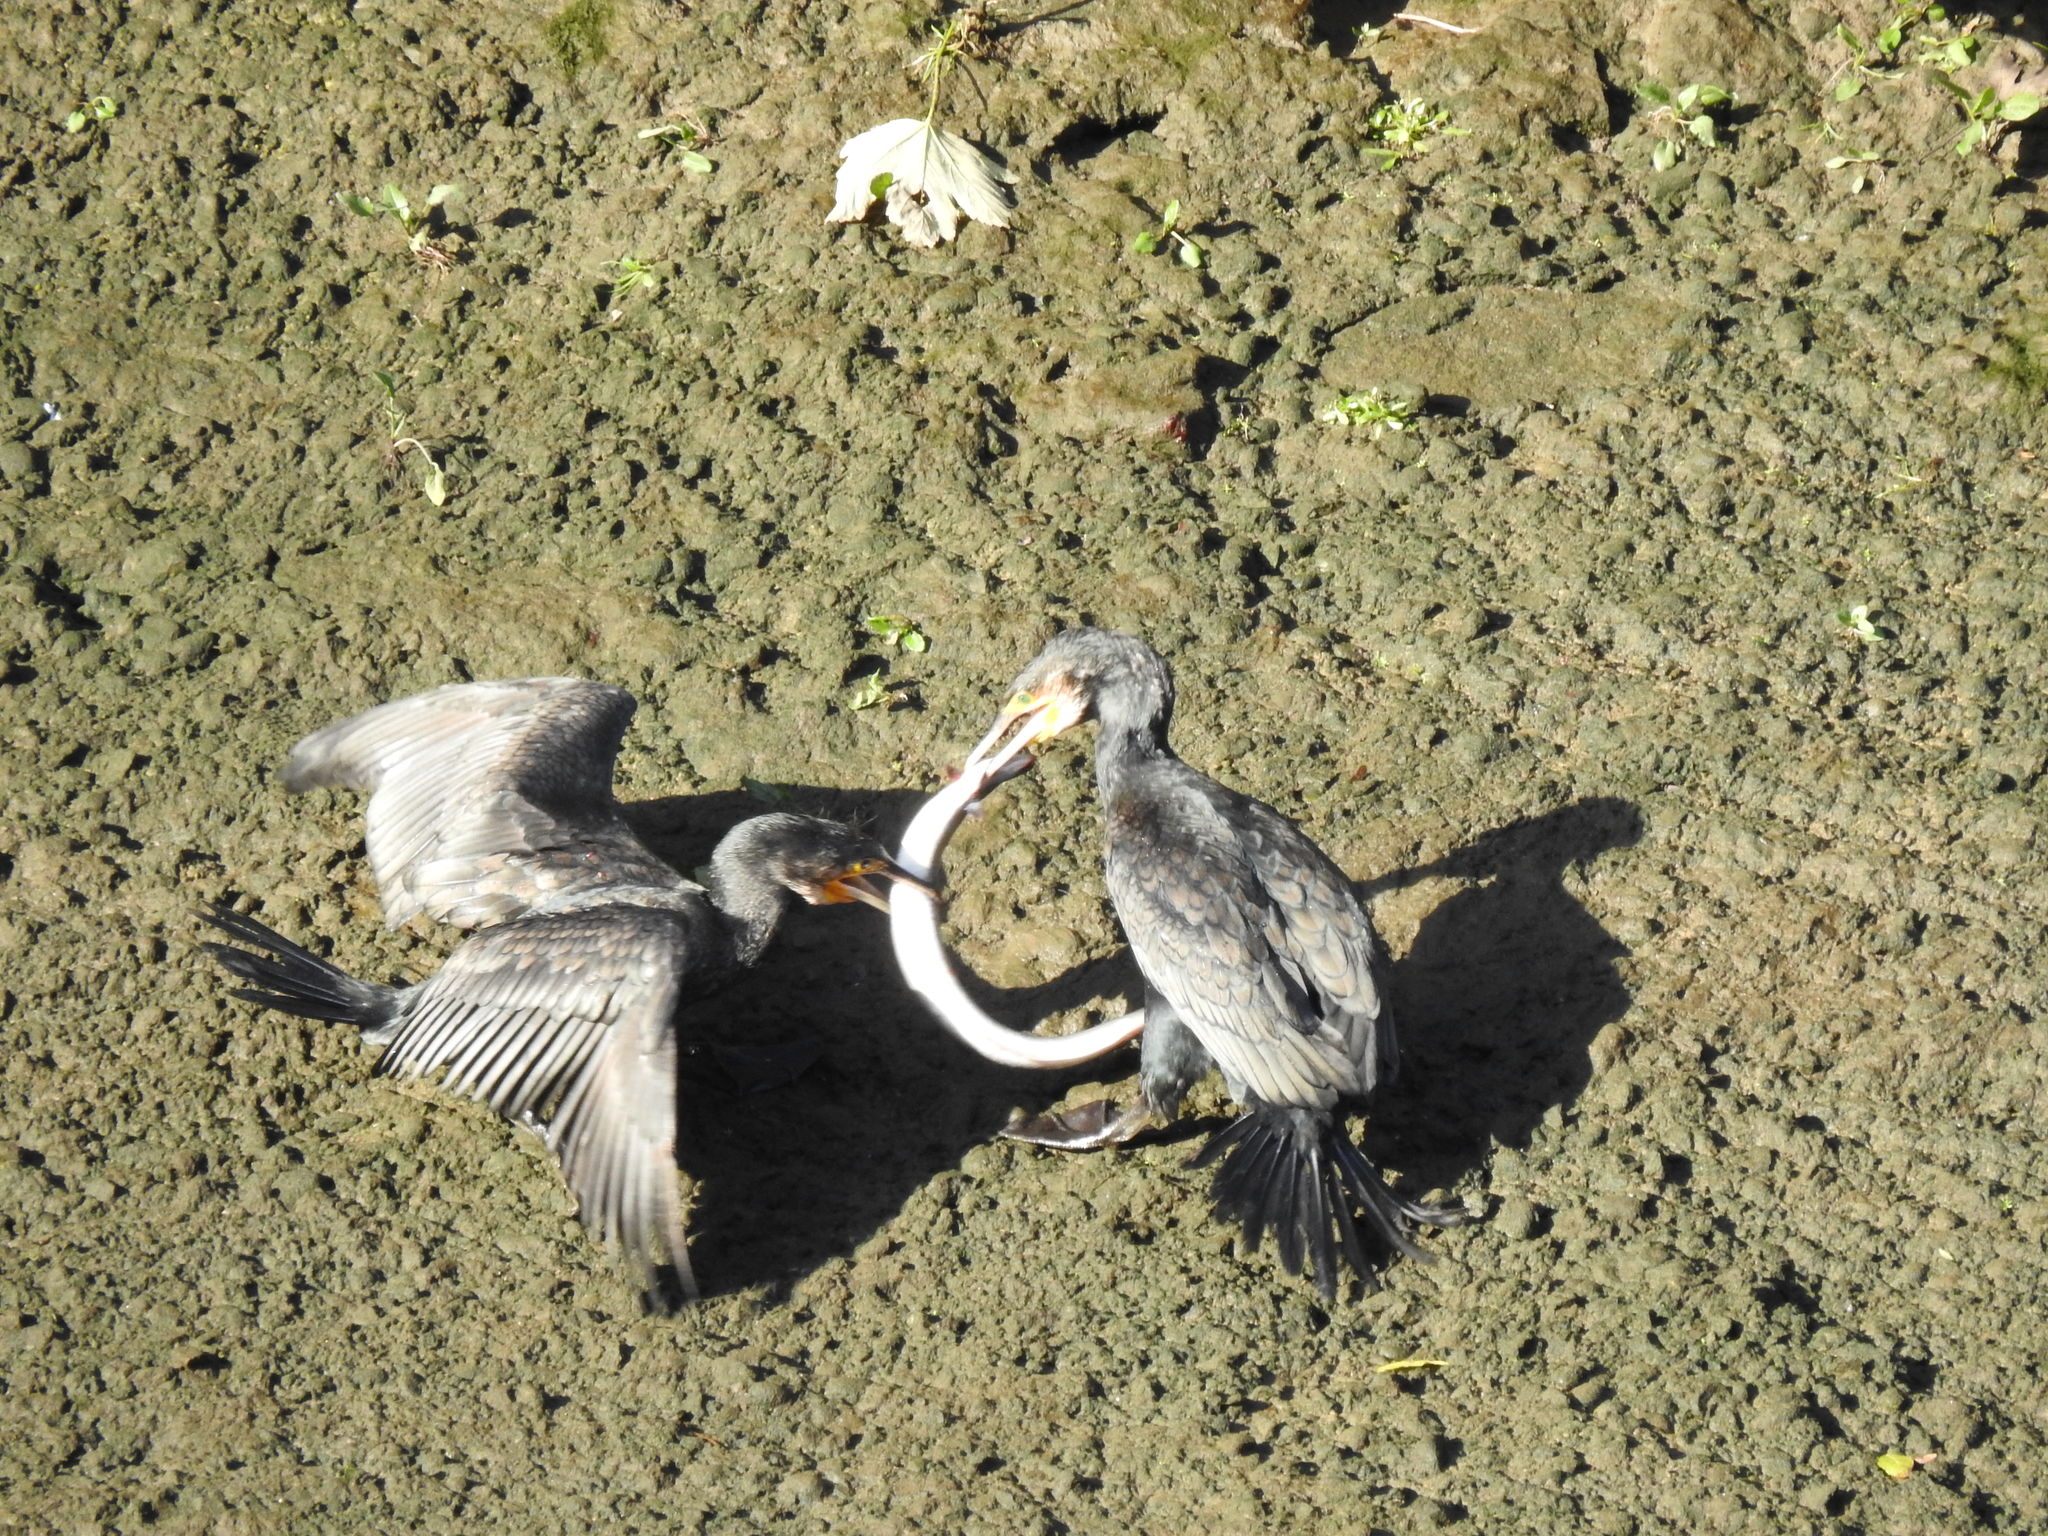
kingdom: Animalia
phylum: Chordata
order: Anguilliformes
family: Anguillidae
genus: Anguilla
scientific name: Anguilla anguilla
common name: European eel
